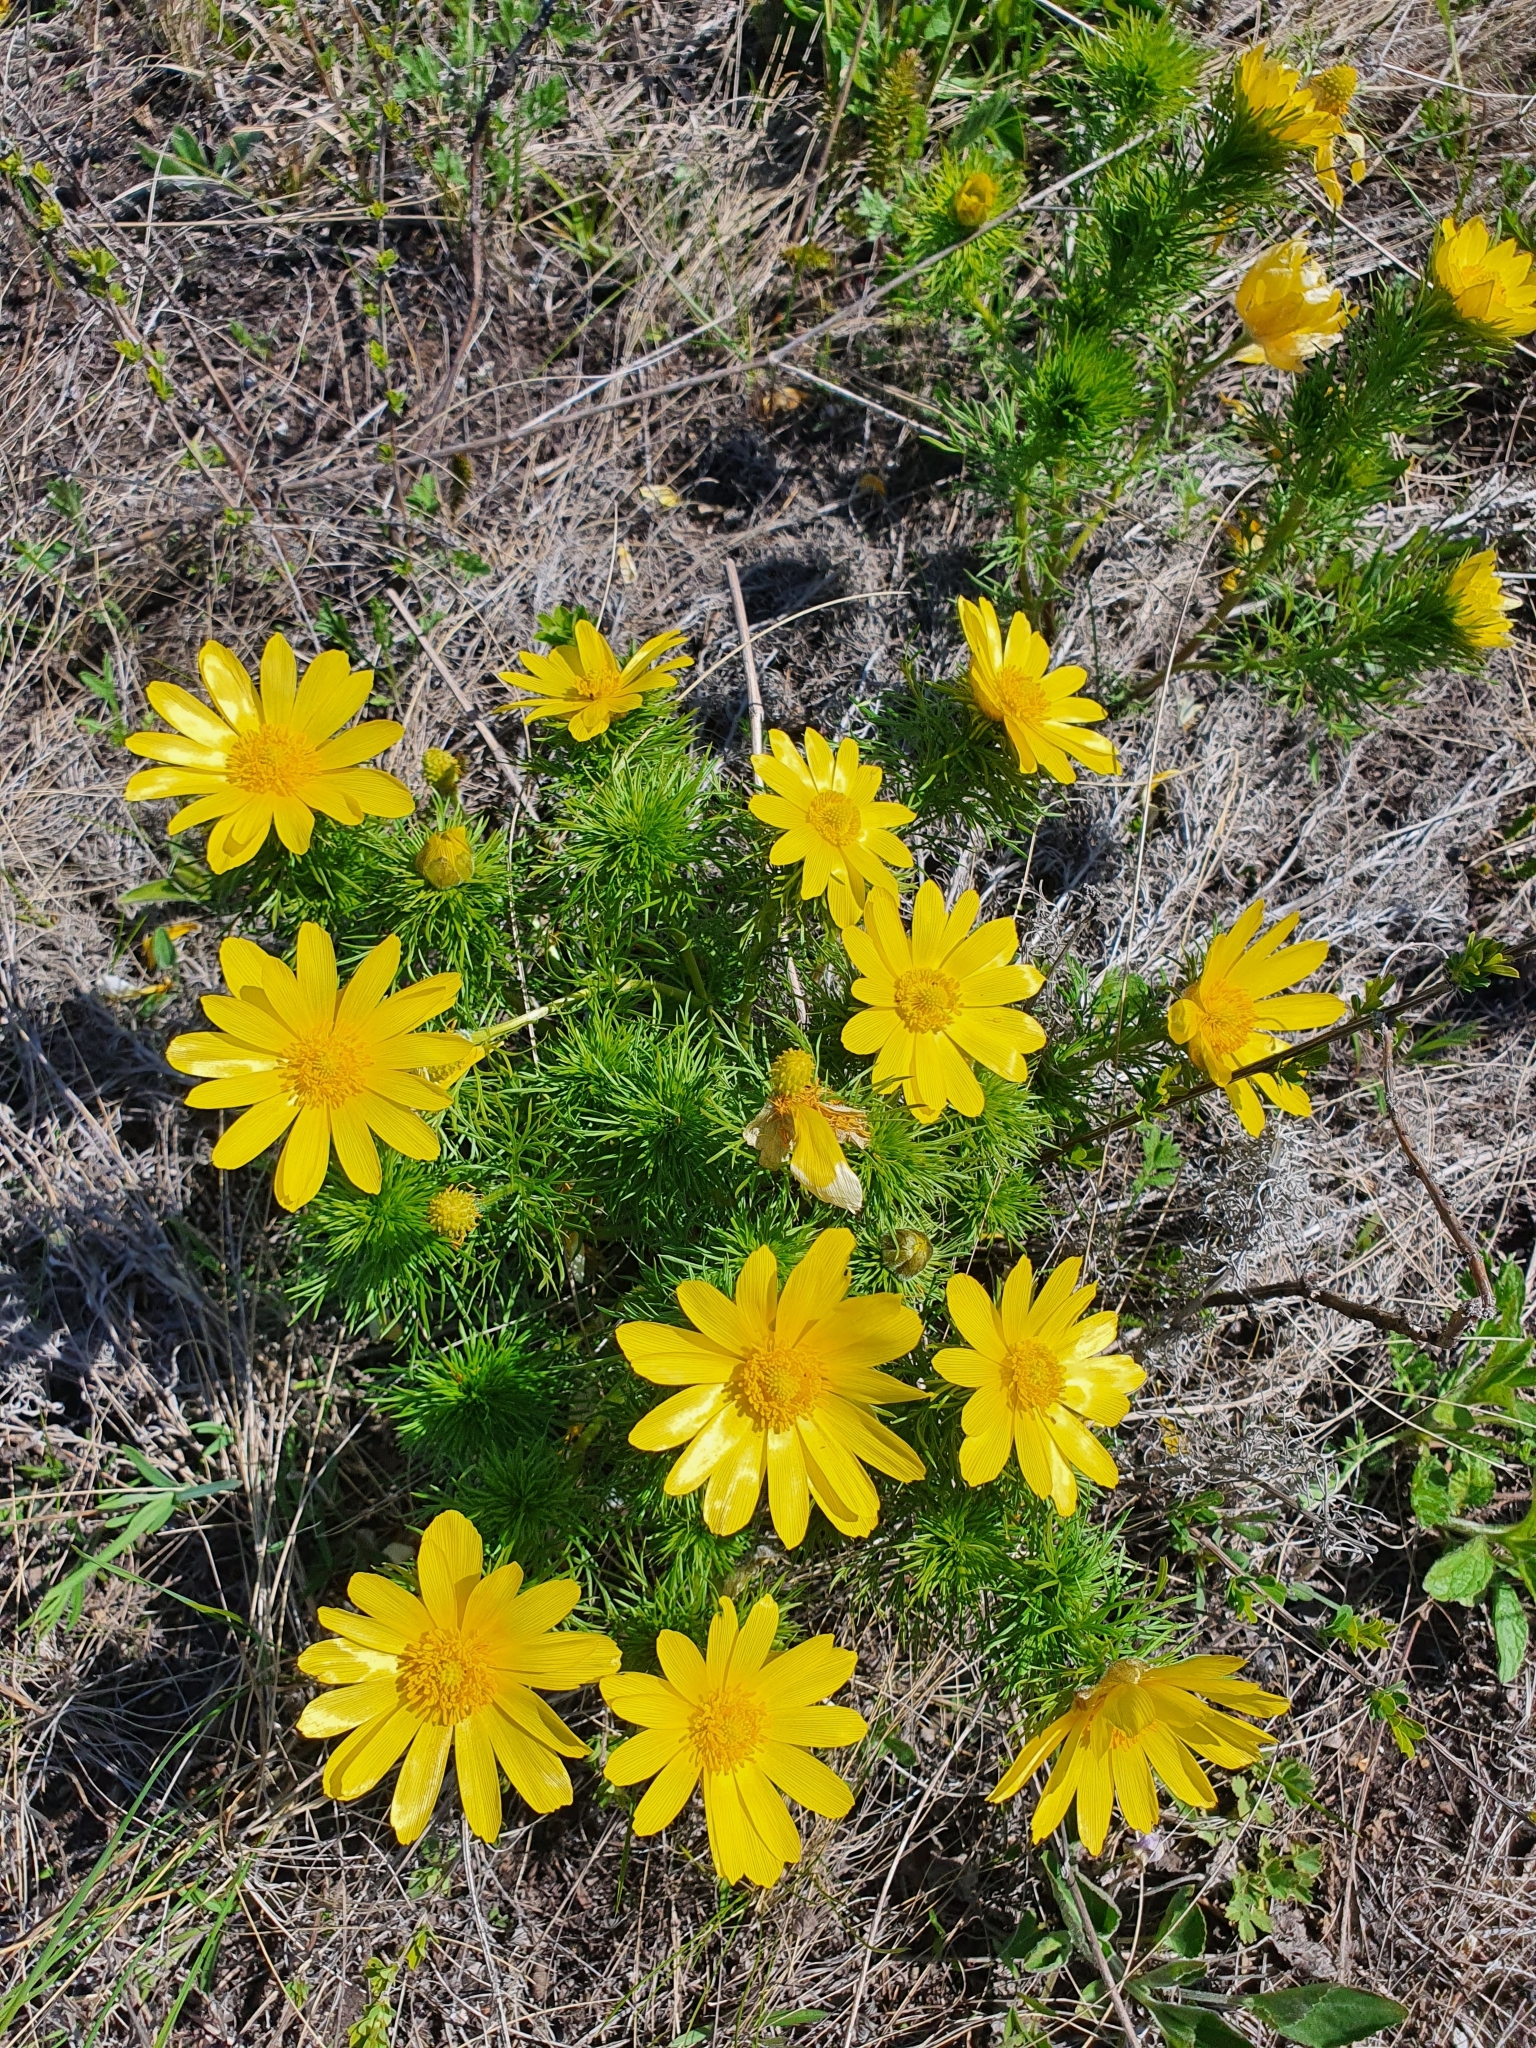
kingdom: Plantae
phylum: Tracheophyta
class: Magnoliopsida
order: Ranunculales
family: Ranunculaceae
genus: Adonis
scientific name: Adonis vernalis
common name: Yellow pheasants-eye
